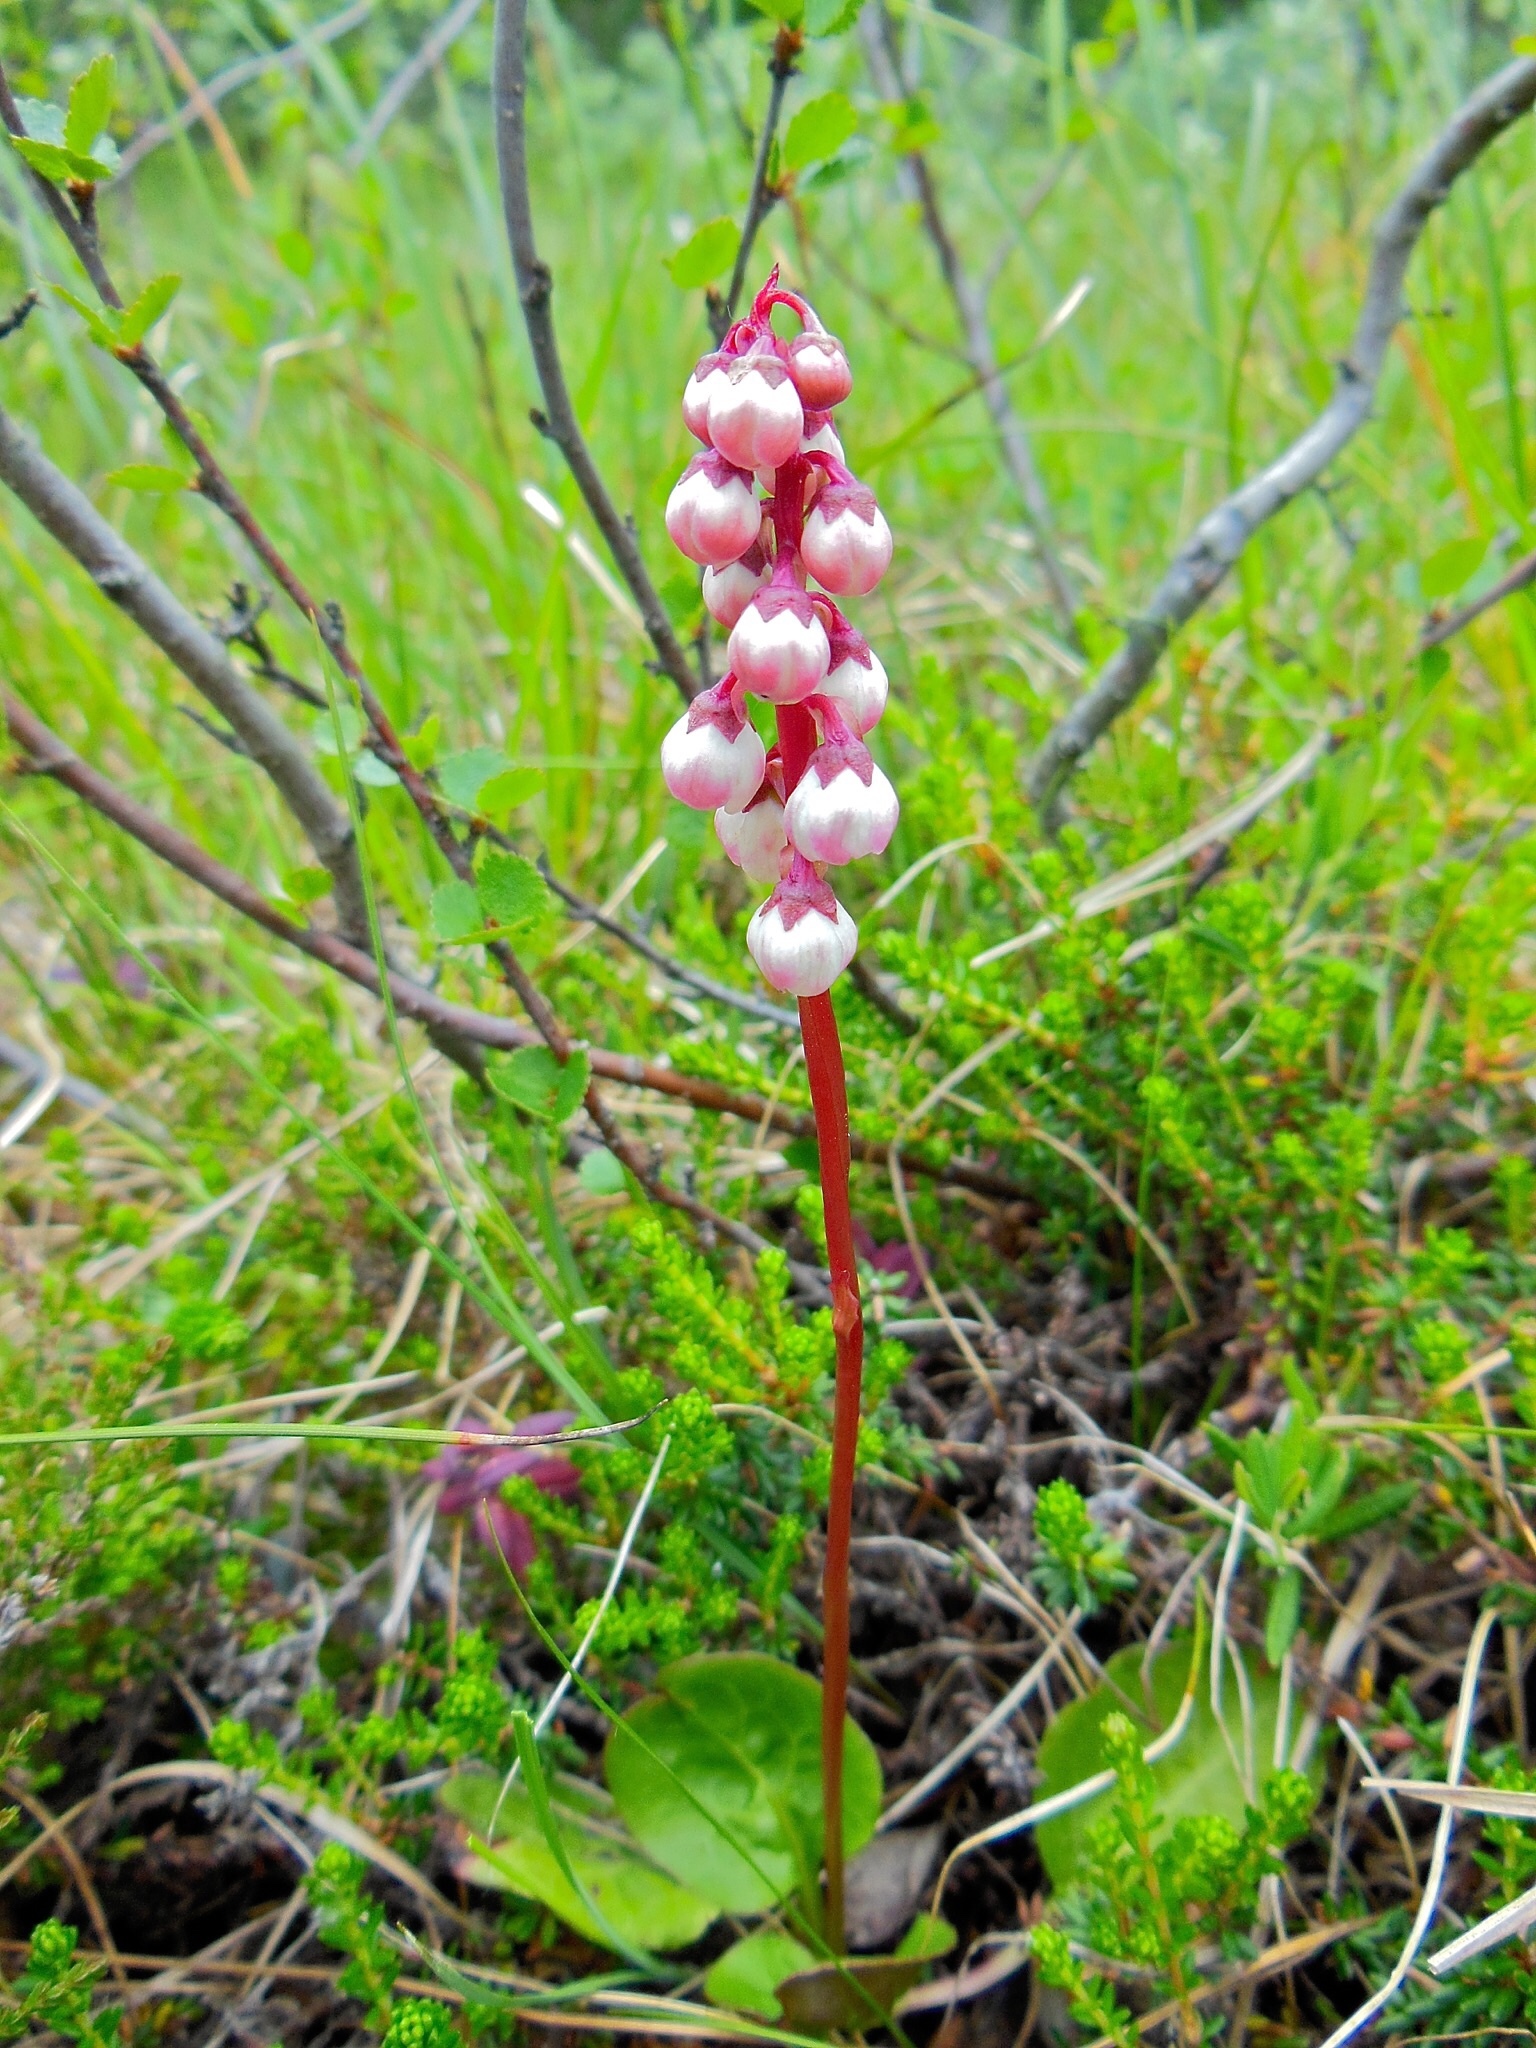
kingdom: Plantae
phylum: Tracheophyta
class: Magnoliopsida
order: Ericales
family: Ericaceae
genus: Pyrola
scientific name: Pyrola minor
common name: Common wintergreen
